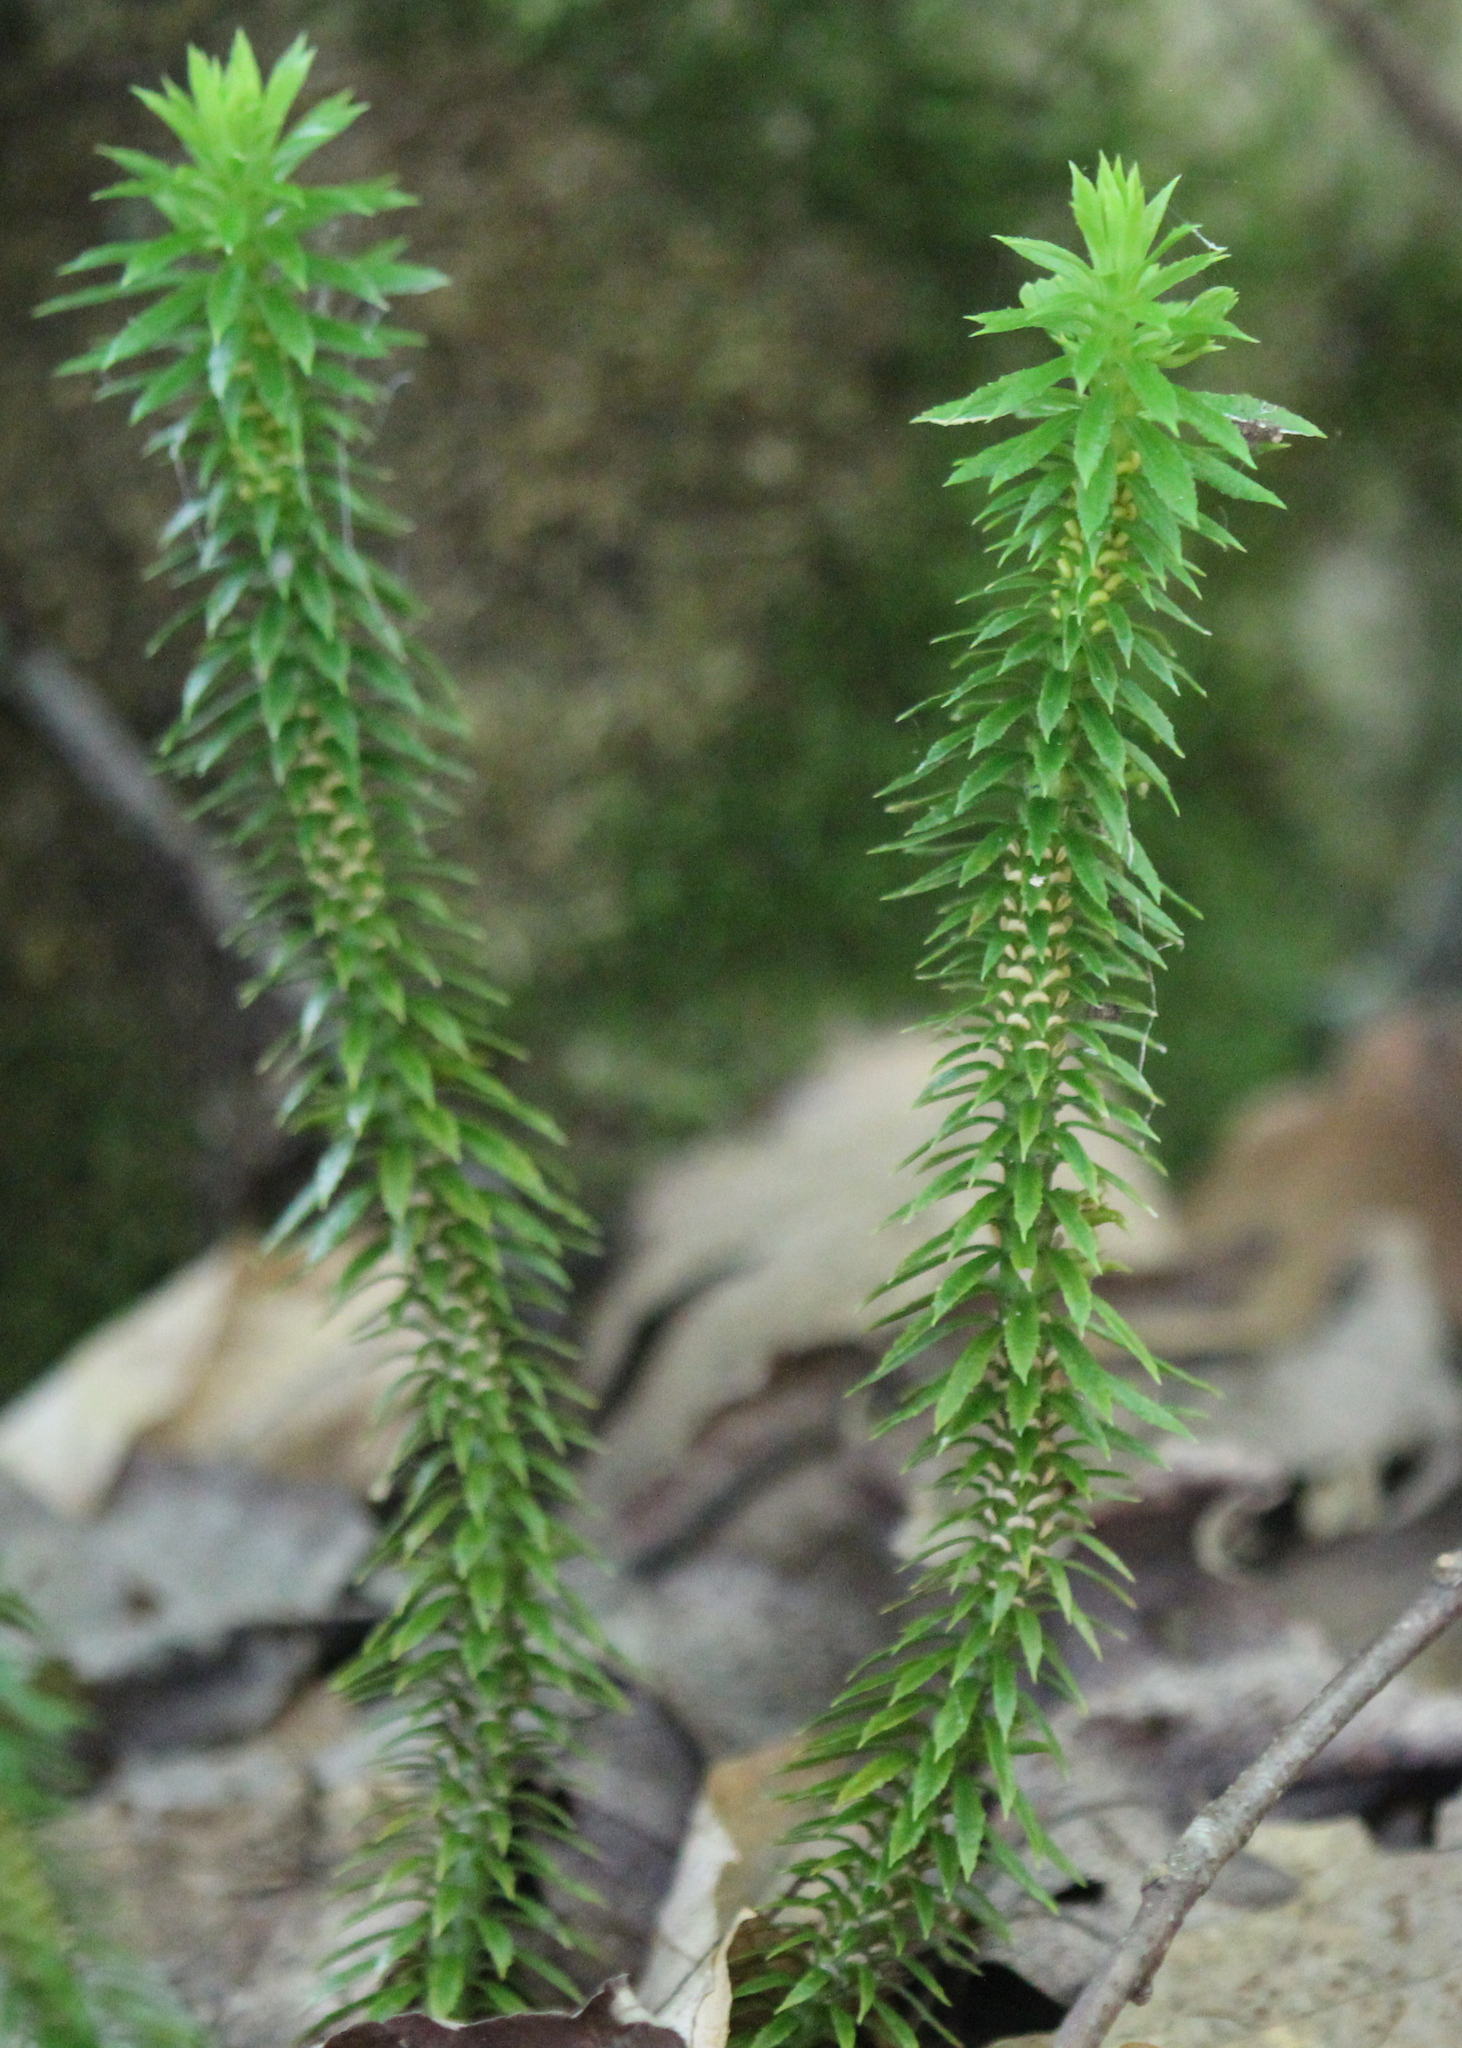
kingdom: Plantae
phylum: Tracheophyta
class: Lycopodiopsida
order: Lycopodiales
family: Lycopodiaceae
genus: Huperzia
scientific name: Huperzia lucidula
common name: Shining clubmoss
